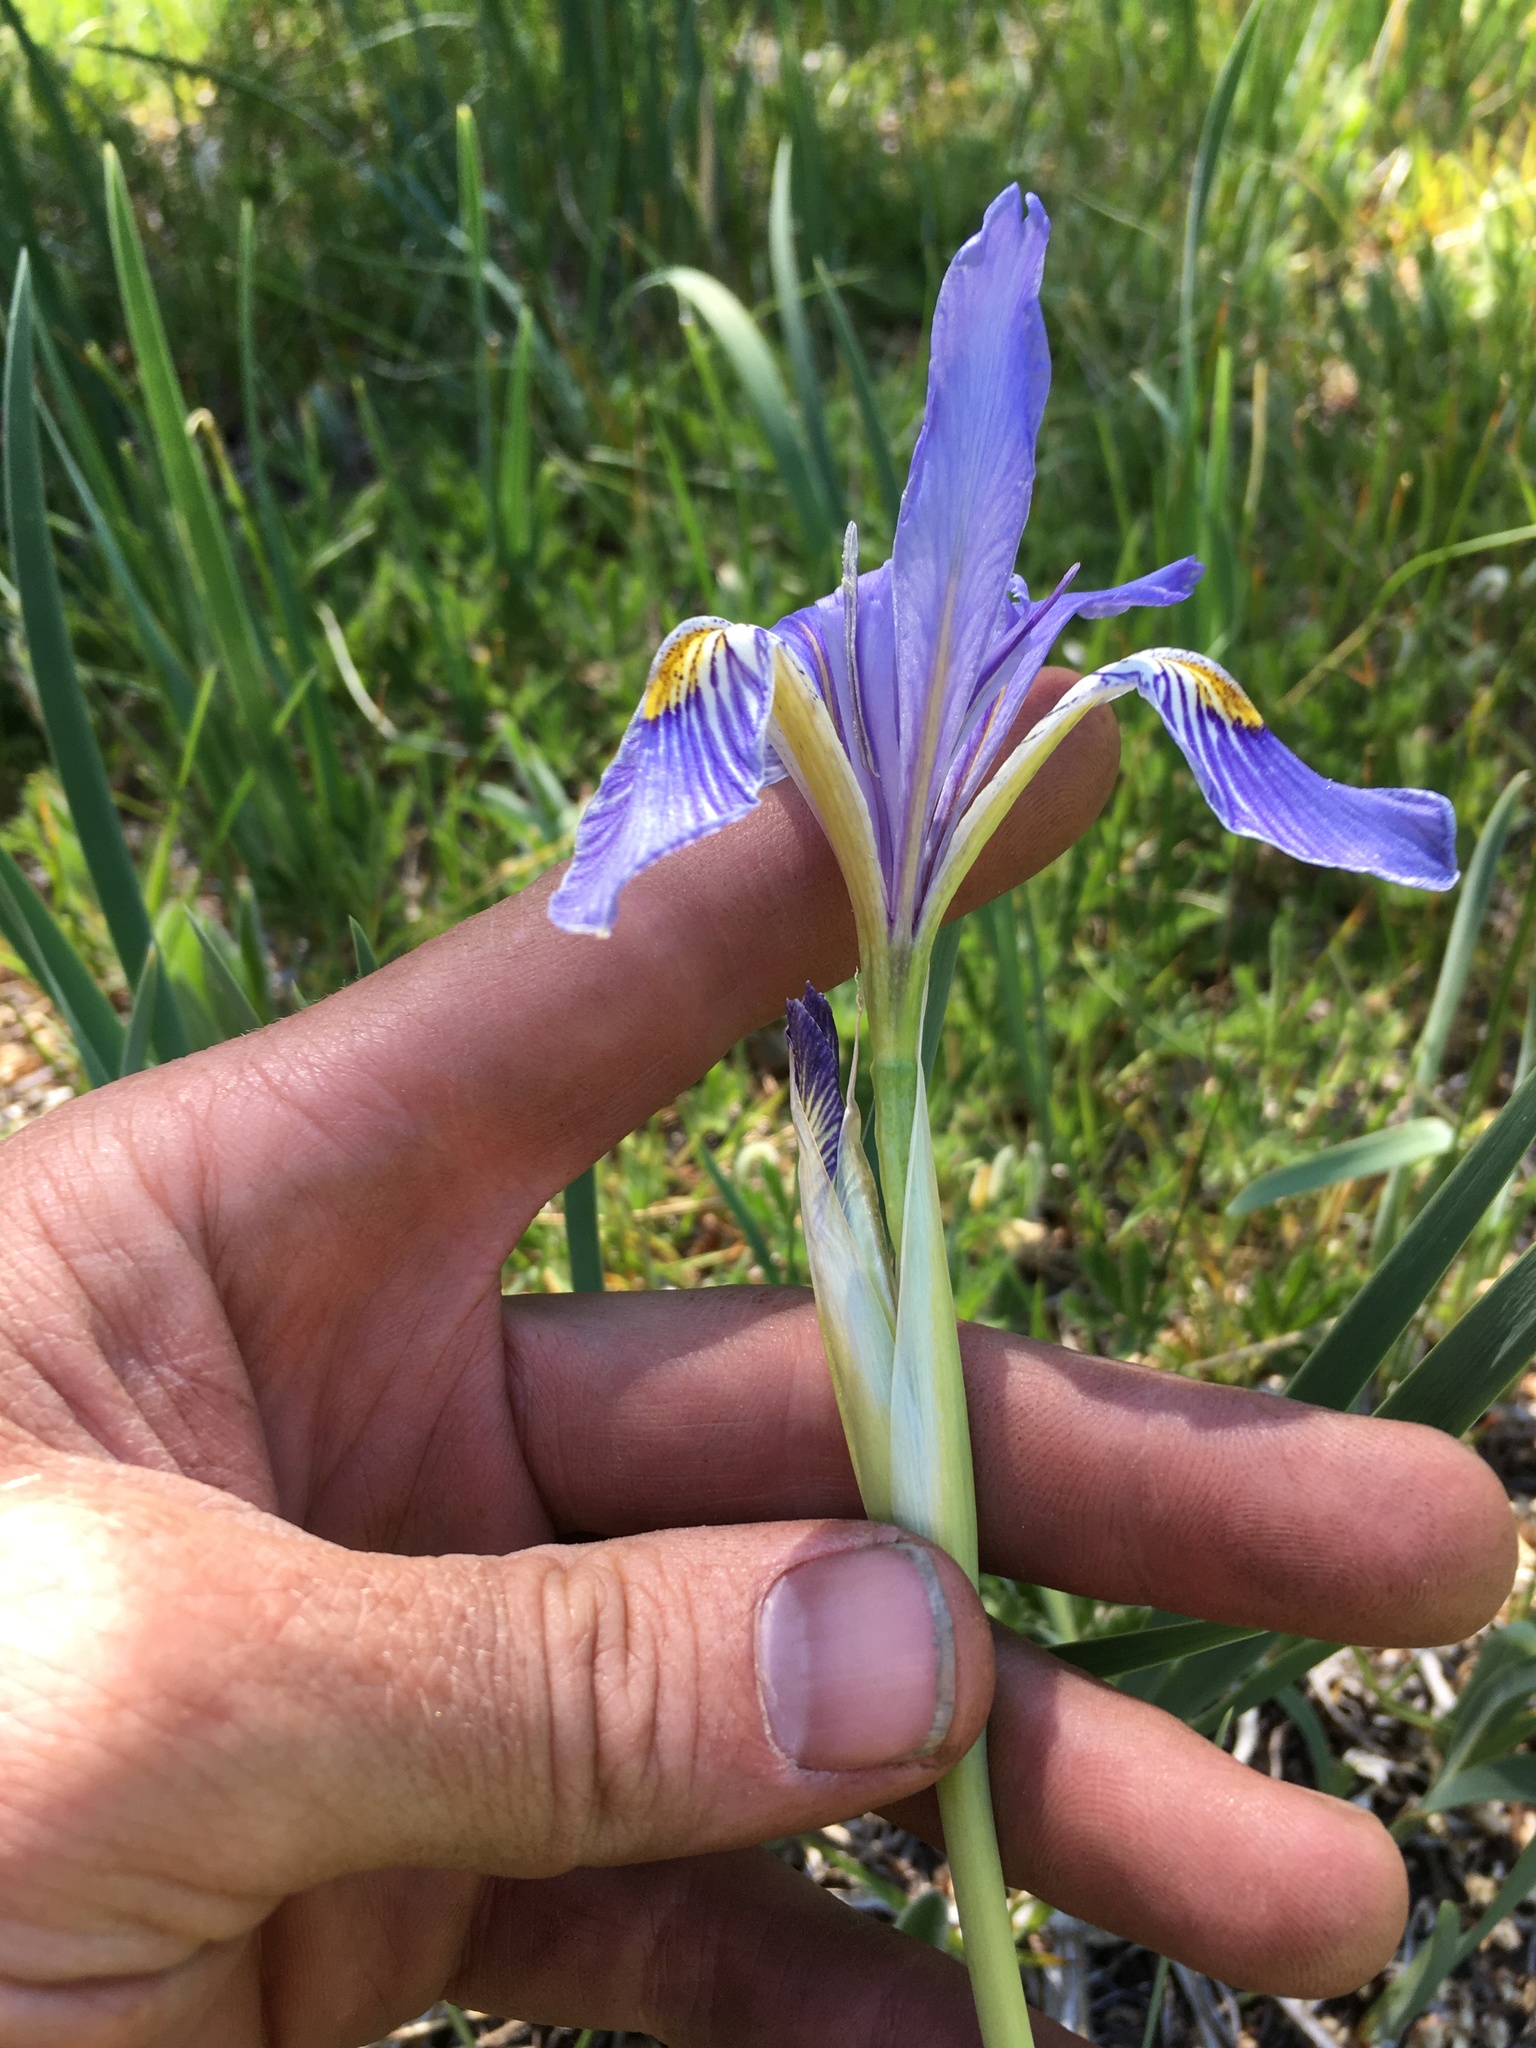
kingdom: Plantae
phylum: Tracheophyta
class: Liliopsida
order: Asparagales
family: Iridaceae
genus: Iris
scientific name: Iris missouriensis
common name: Rocky mountain iris
